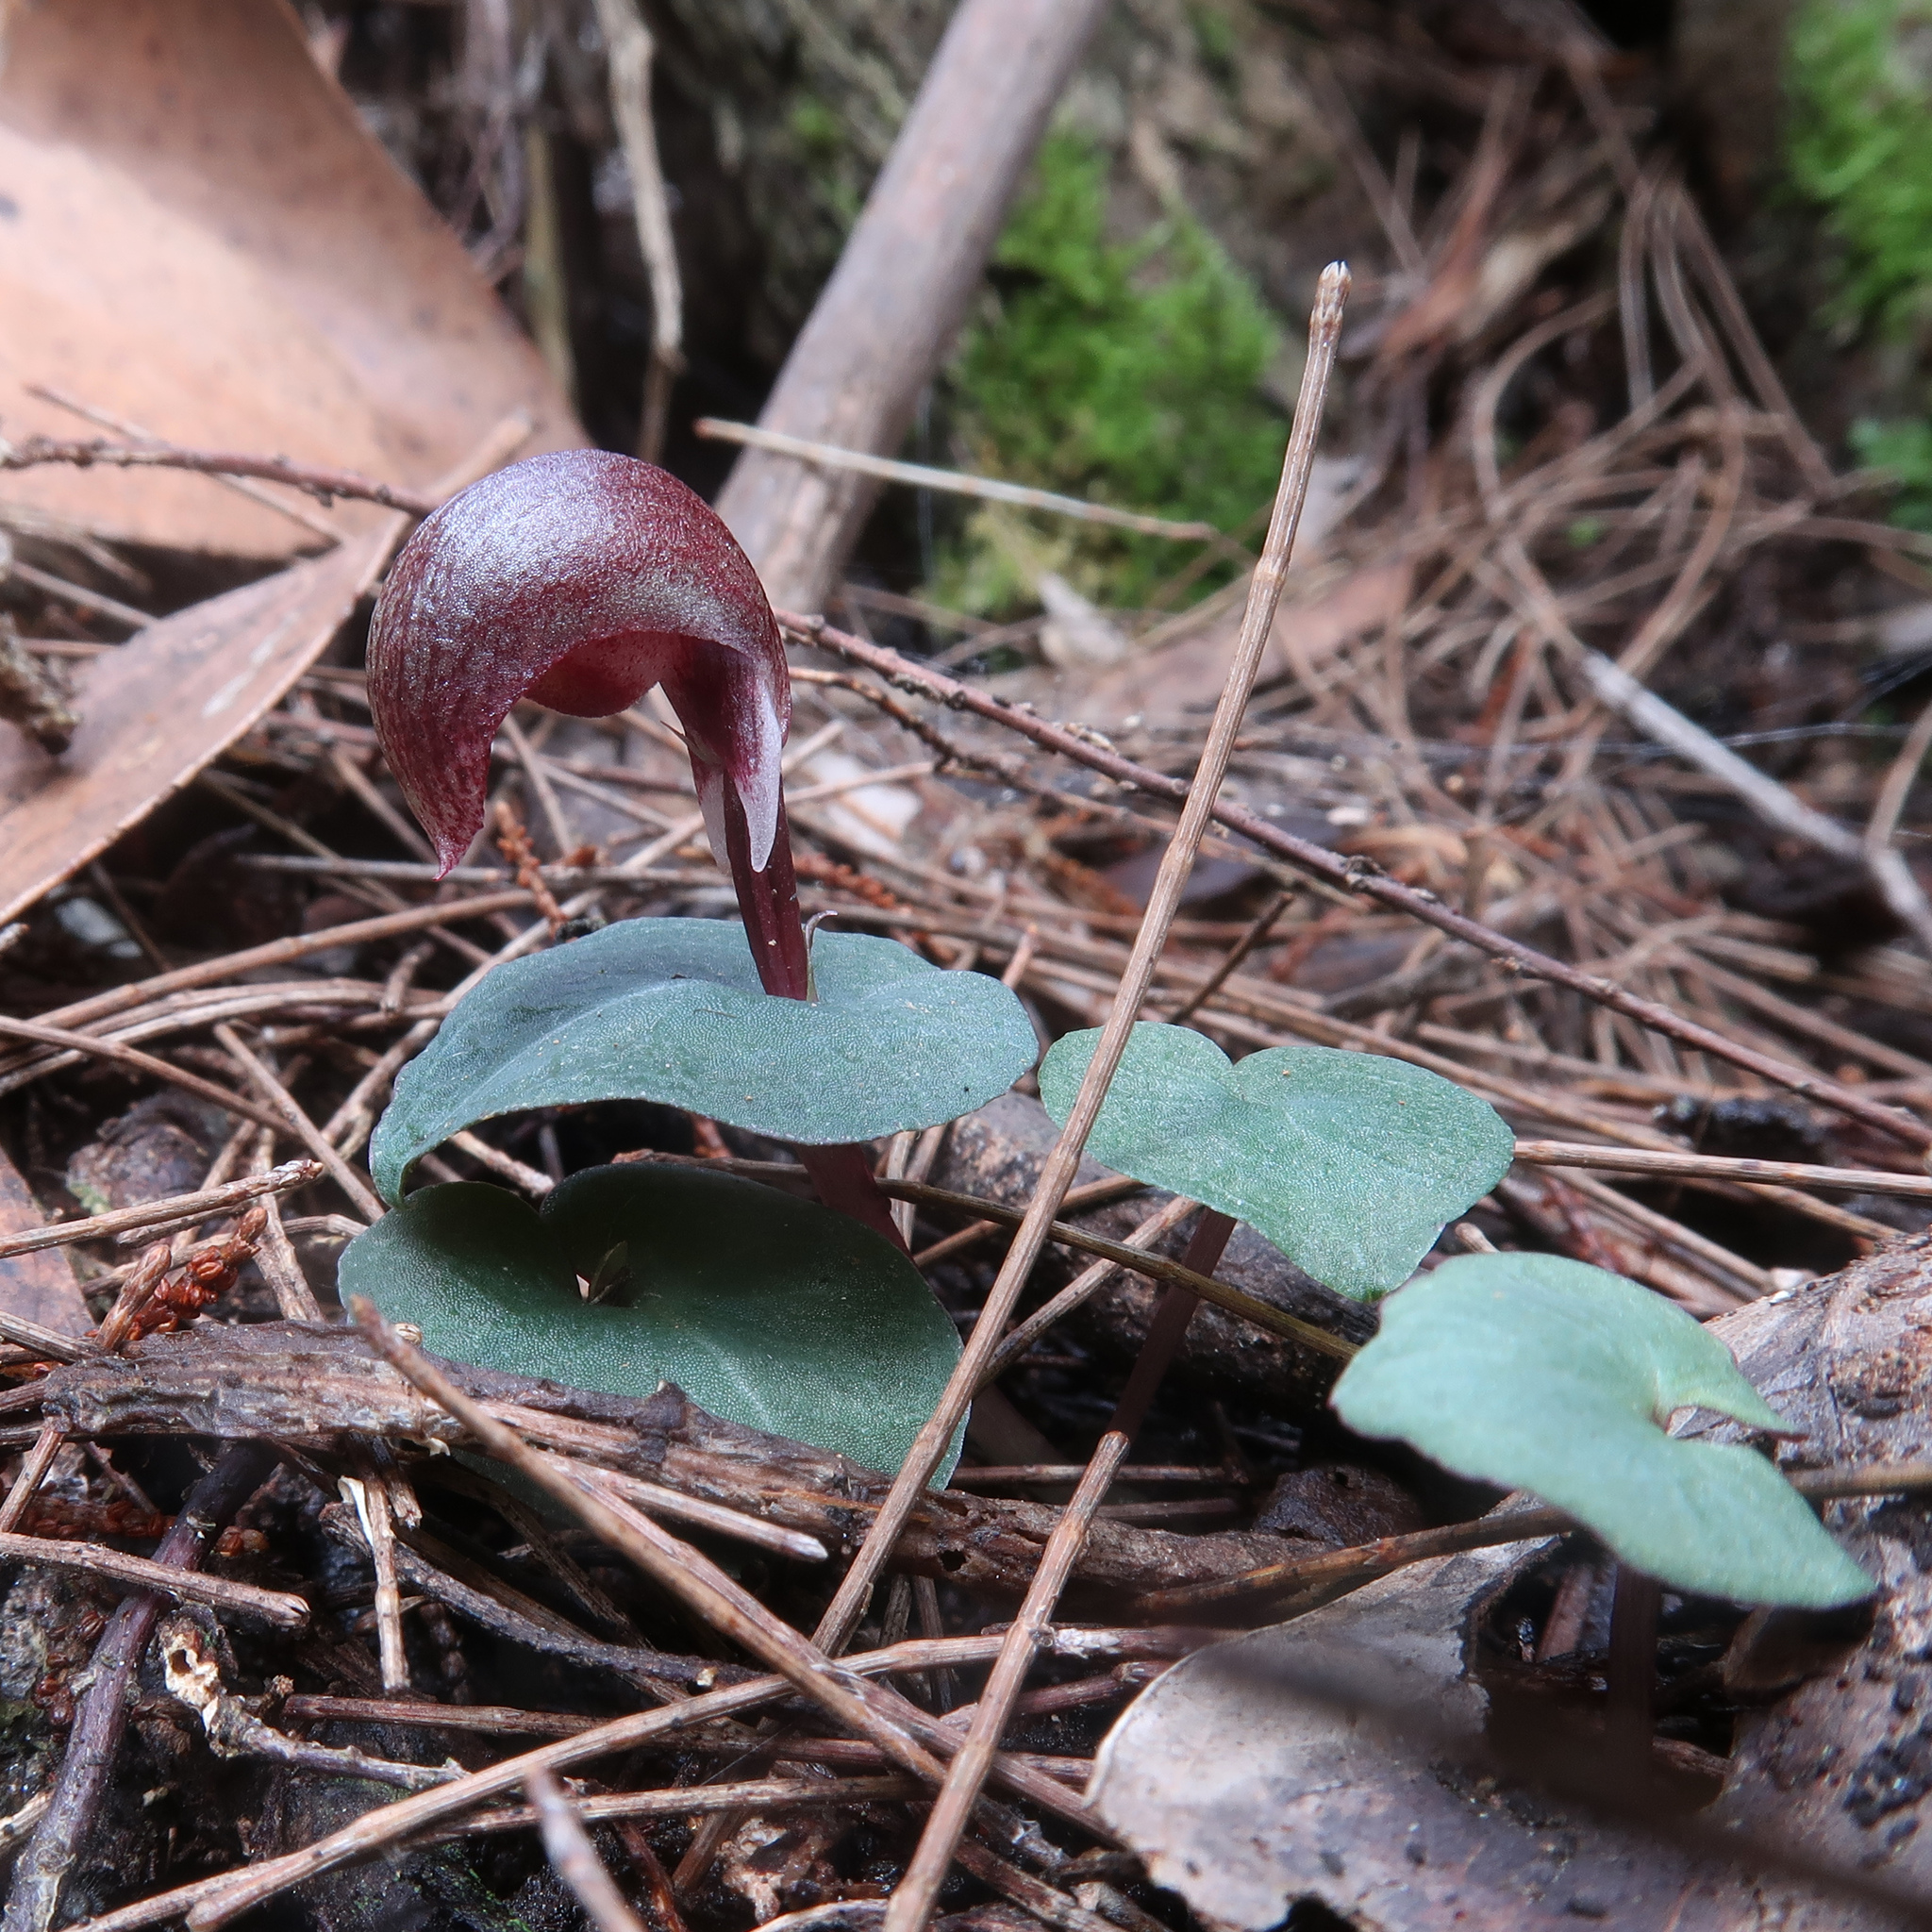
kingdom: Plantae
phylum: Tracheophyta
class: Liliopsida
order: Asparagales
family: Orchidaceae
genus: Corybas
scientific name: Corybas aconitiflorus
